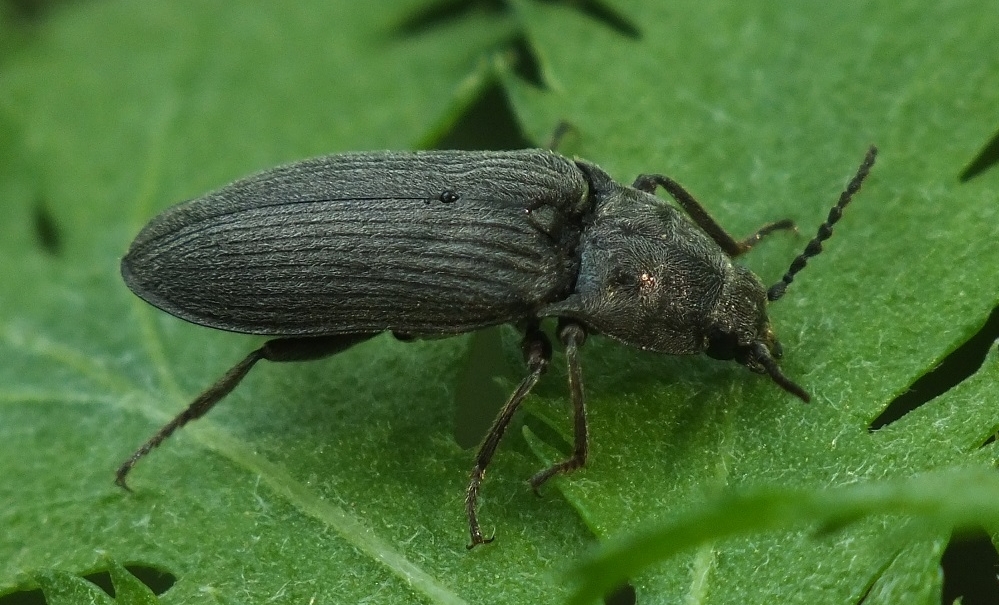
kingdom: Animalia
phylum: Arthropoda
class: Insecta
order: Coleoptera
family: Elateridae
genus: Selatosomus
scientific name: Selatosomus latus
